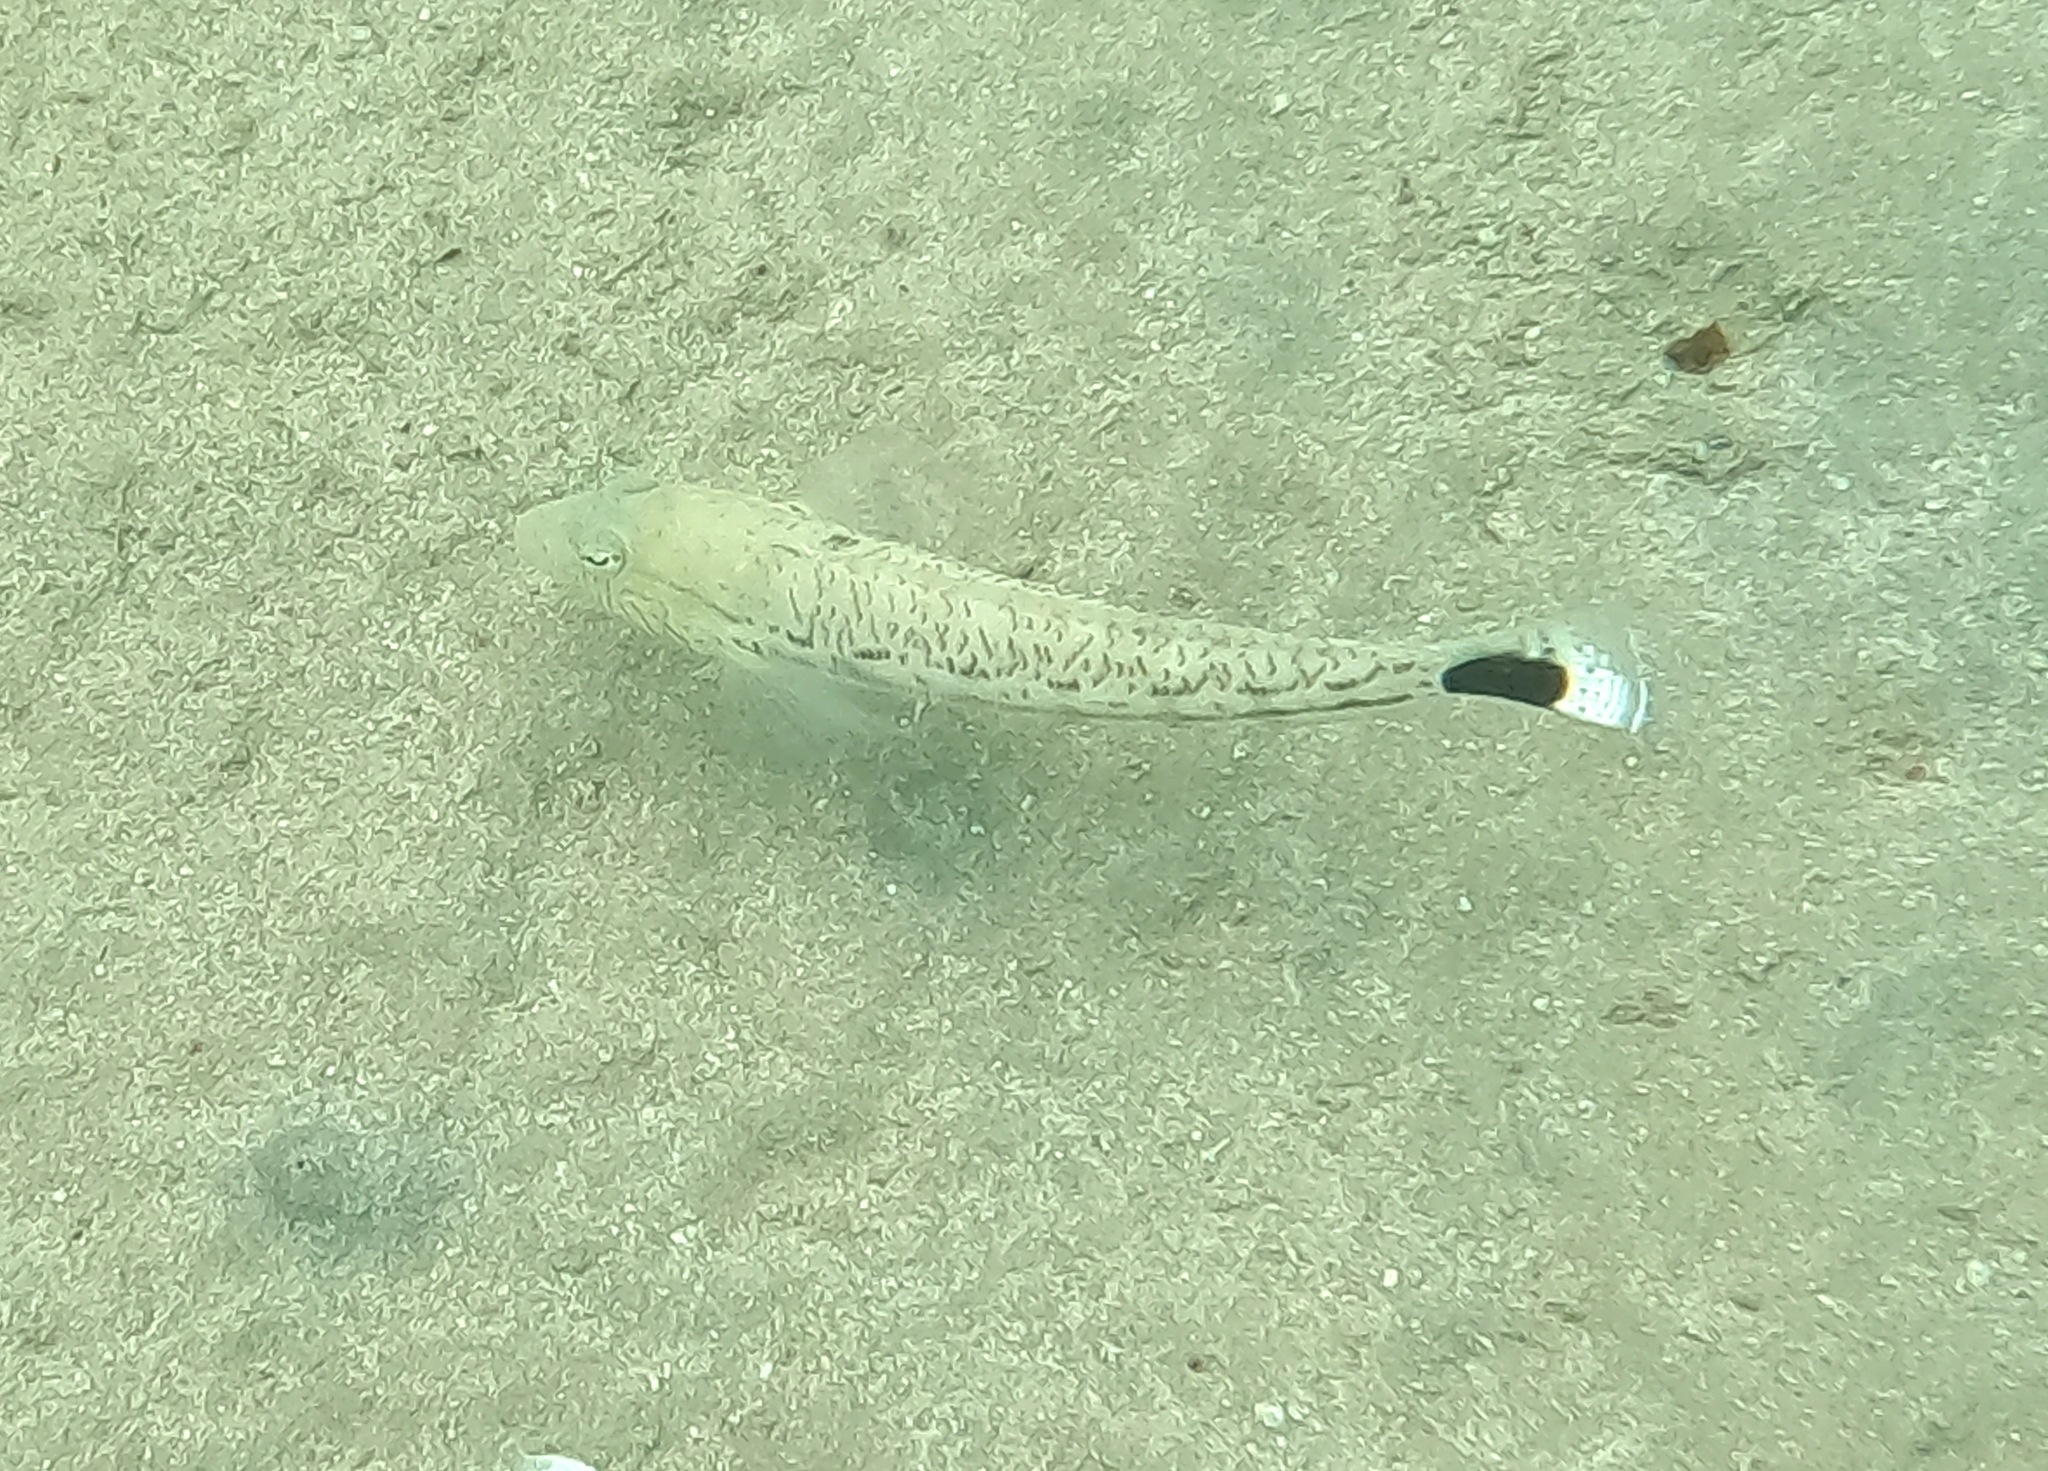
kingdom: Animalia
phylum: Chordata
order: Perciformes
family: Pinguipedidae
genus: Parapercis
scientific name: Parapercis hexophtalma
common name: Speckled sandperch
